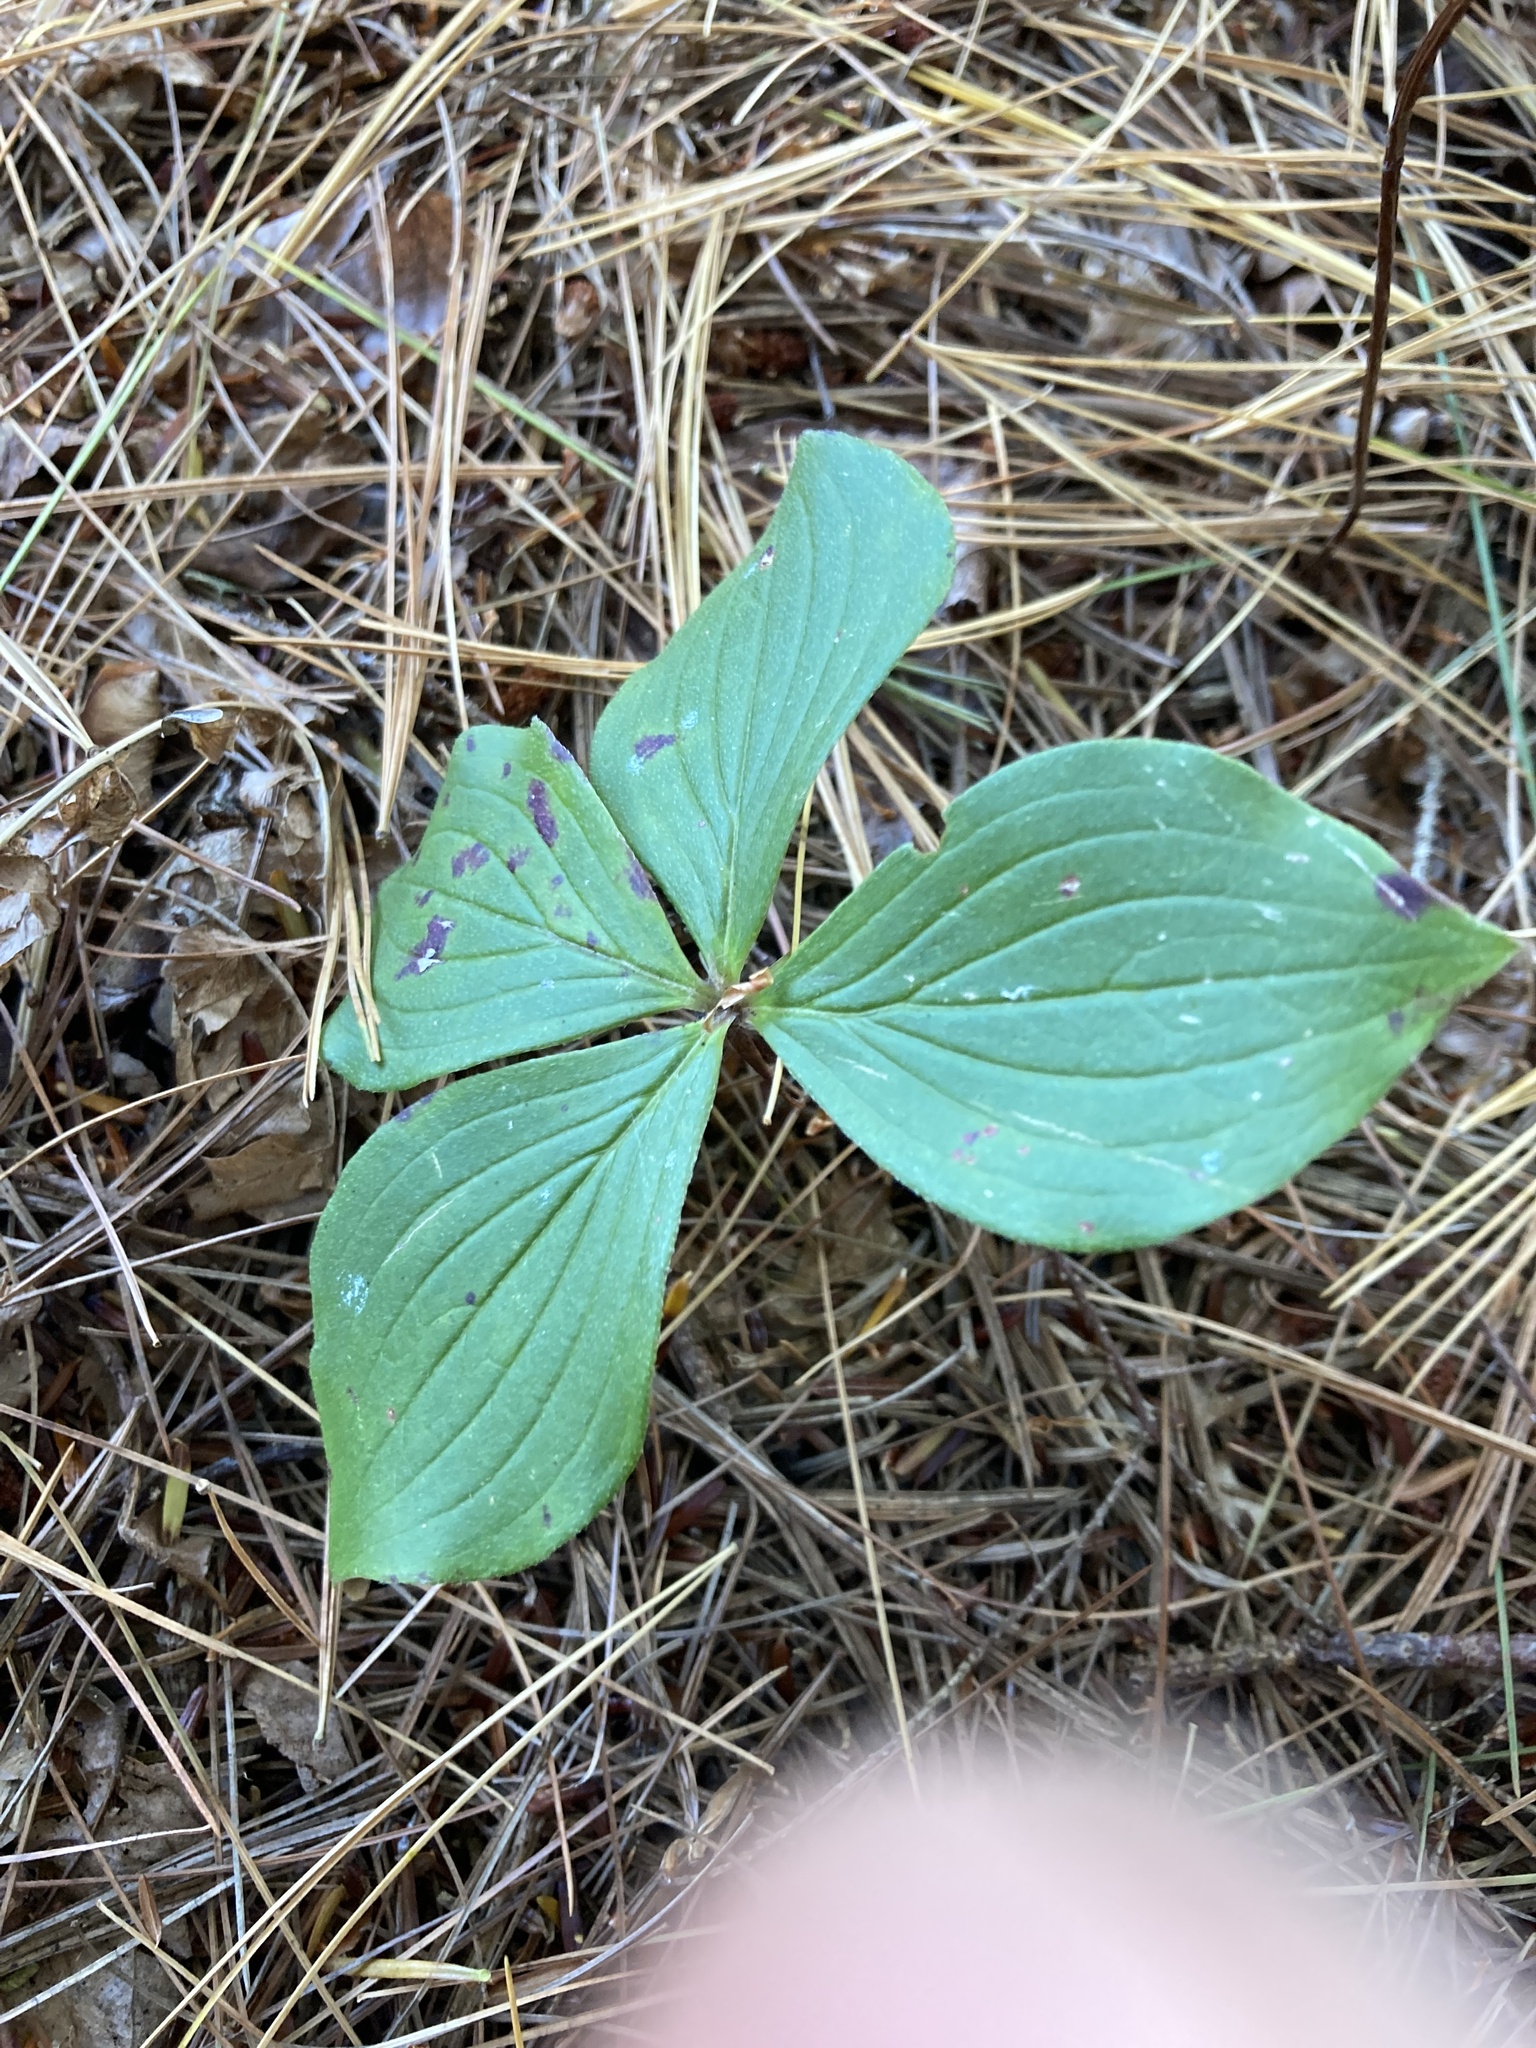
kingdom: Plantae
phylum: Tracheophyta
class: Magnoliopsida
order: Cornales
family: Cornaceae
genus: Cornus
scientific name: Cornus canadensis
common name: Creeping dogwood
